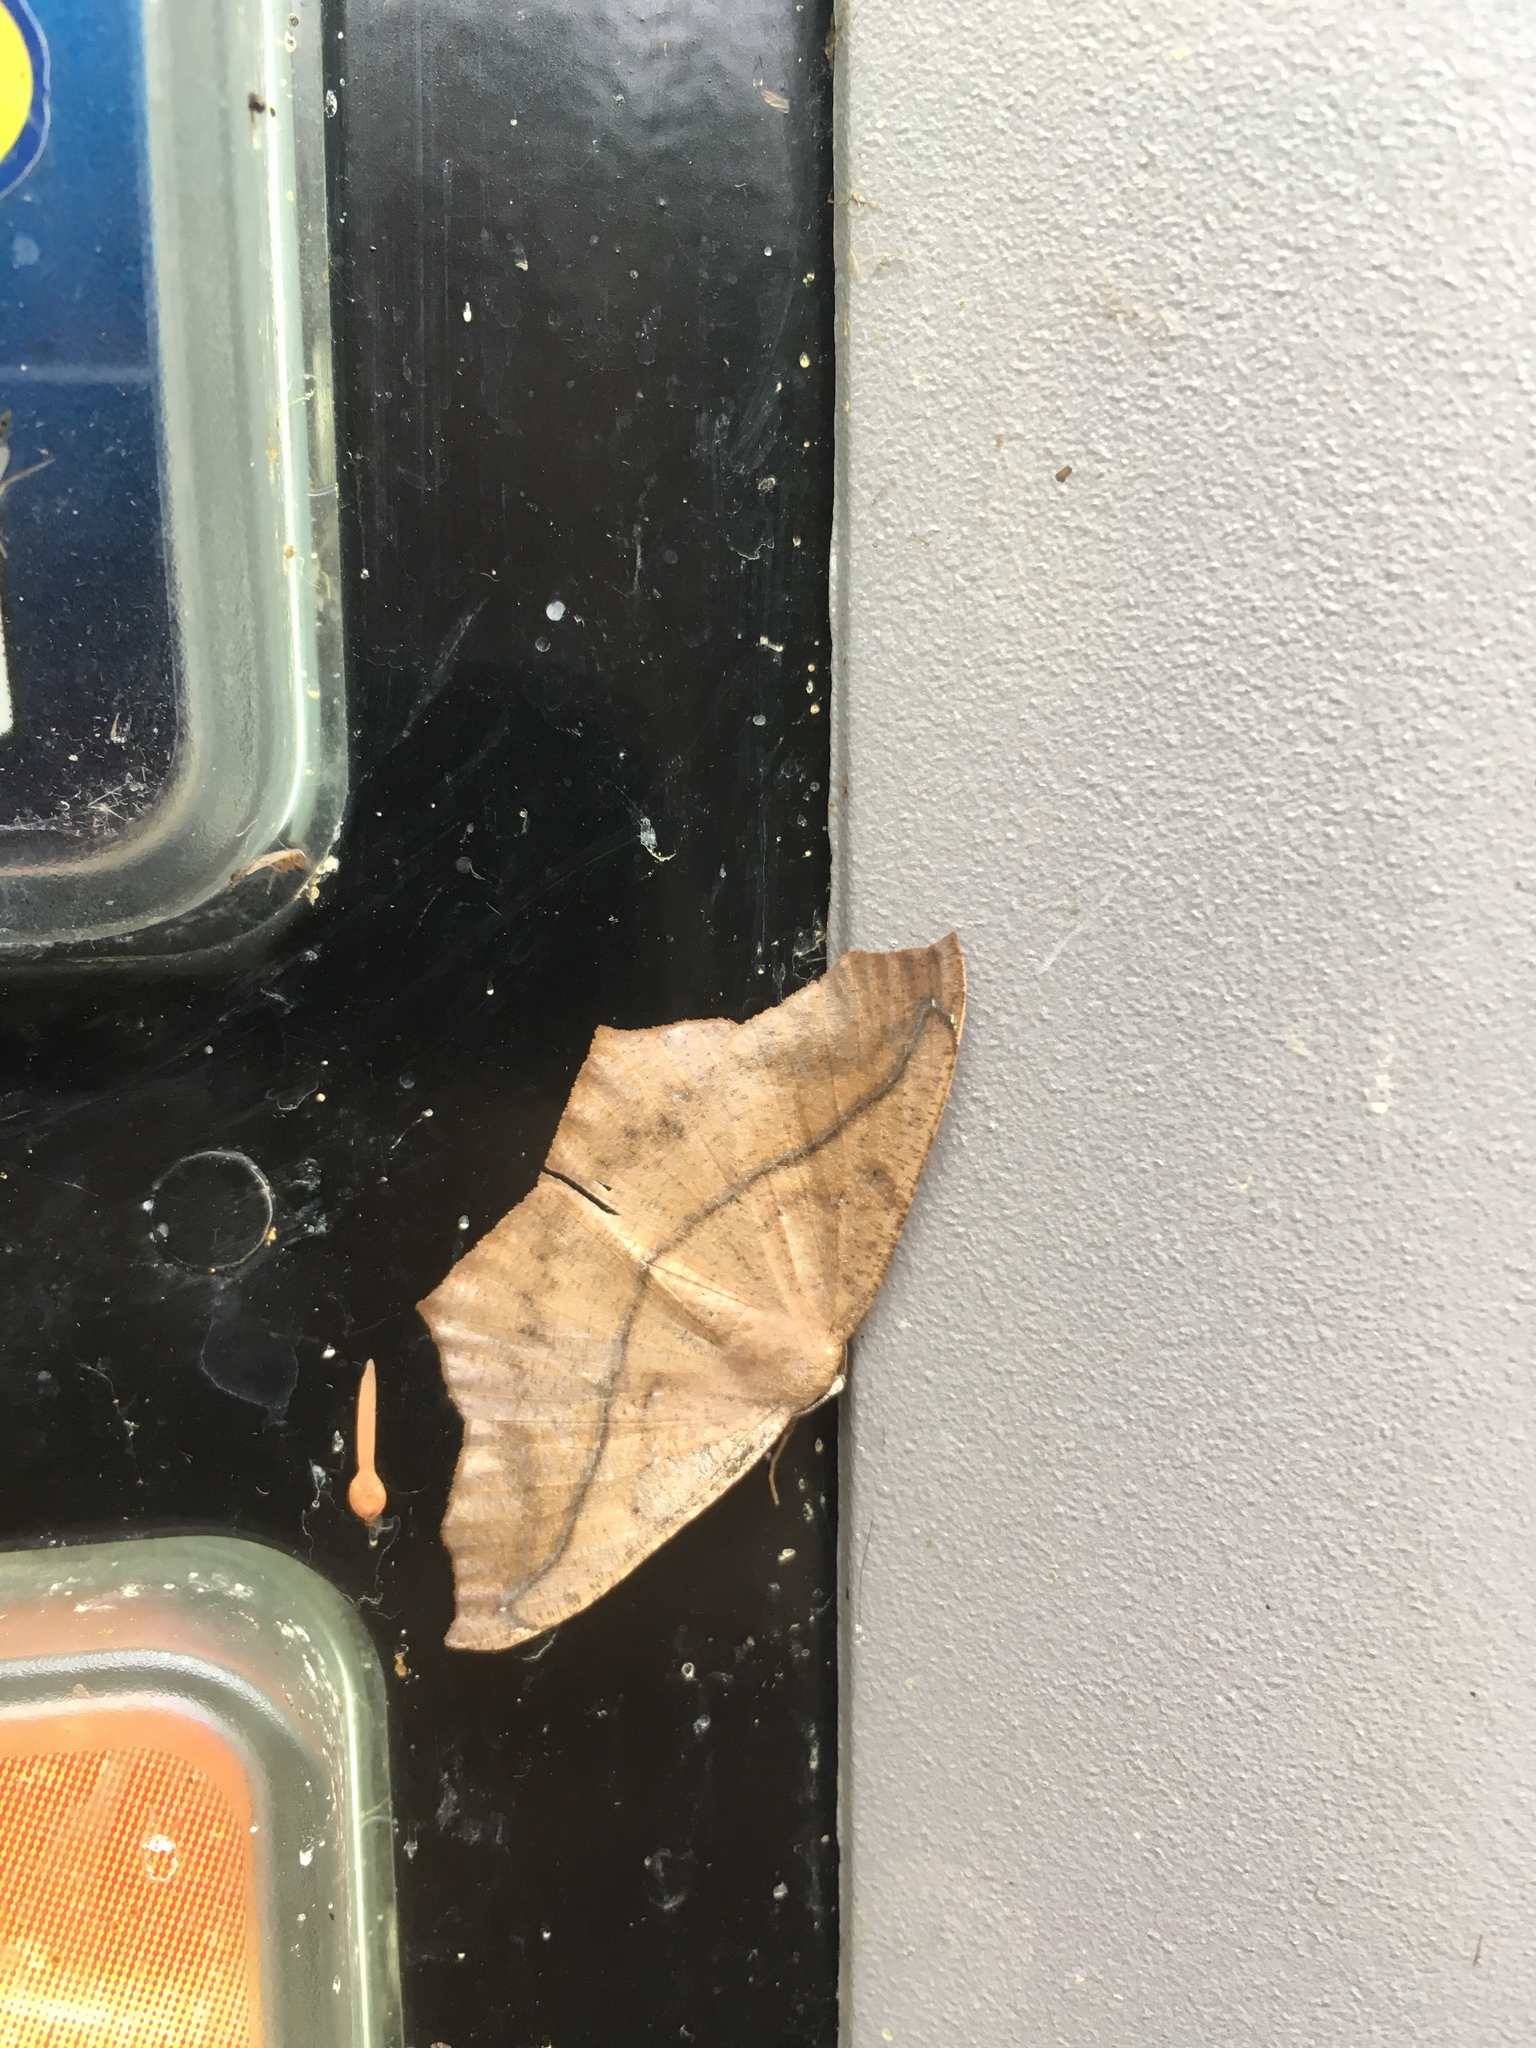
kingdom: Animalia
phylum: Arthropoda
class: Insecta
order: Lepidoptera
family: Geometridae
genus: Prochoerodes
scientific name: Prochoerodes lineola
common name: Large maple spanworm
